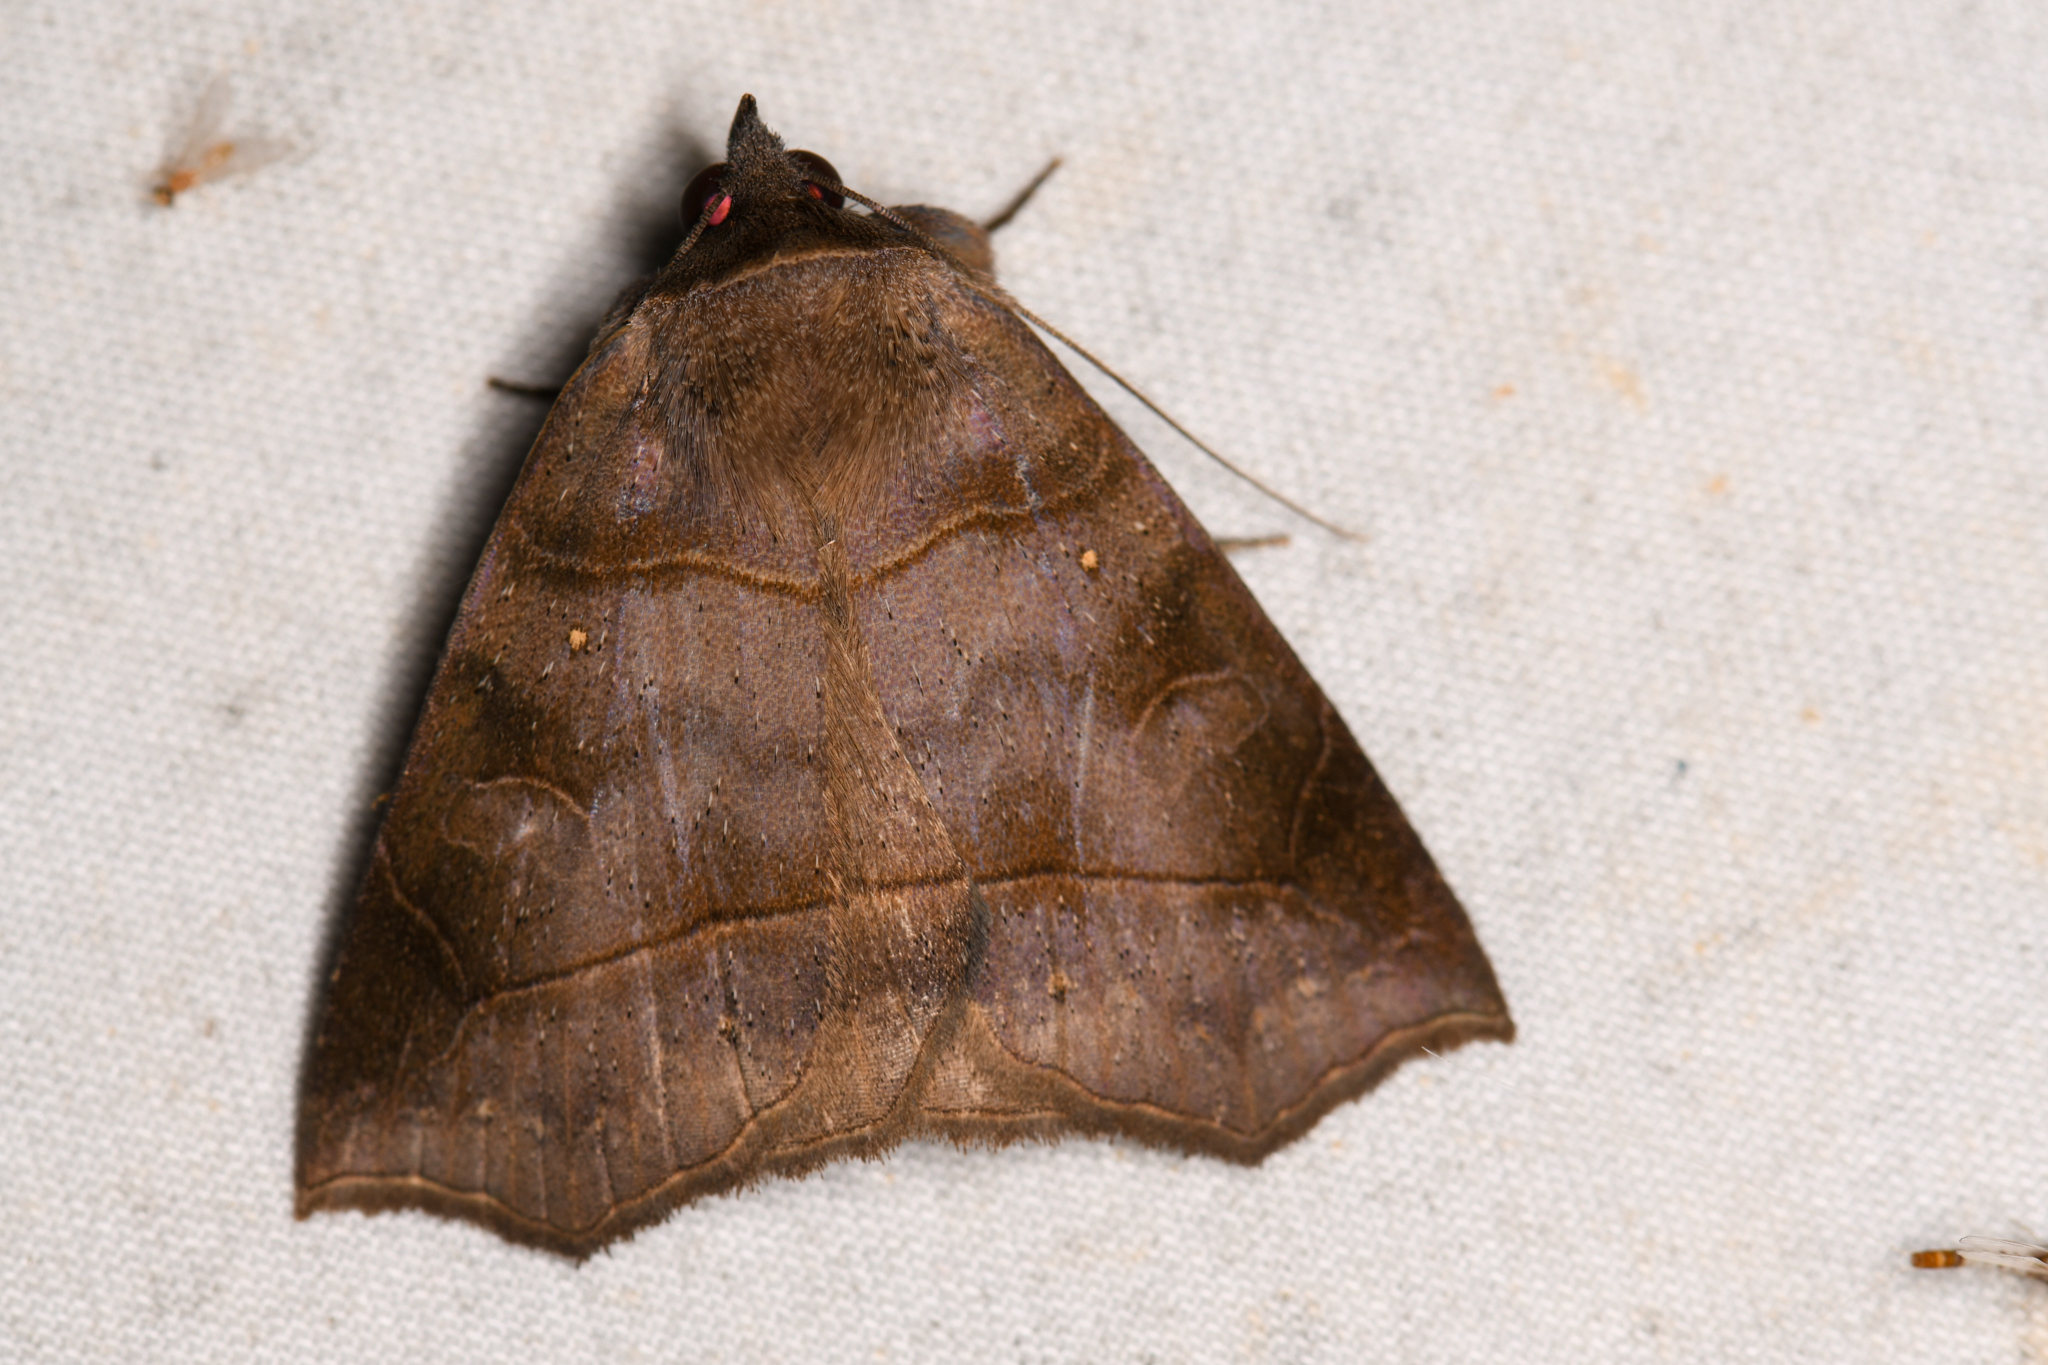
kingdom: Animalia
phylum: Arthropoda
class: Insecta
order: Lepidoptera
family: Erebidae
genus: Isogona
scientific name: Isogona natatrix
